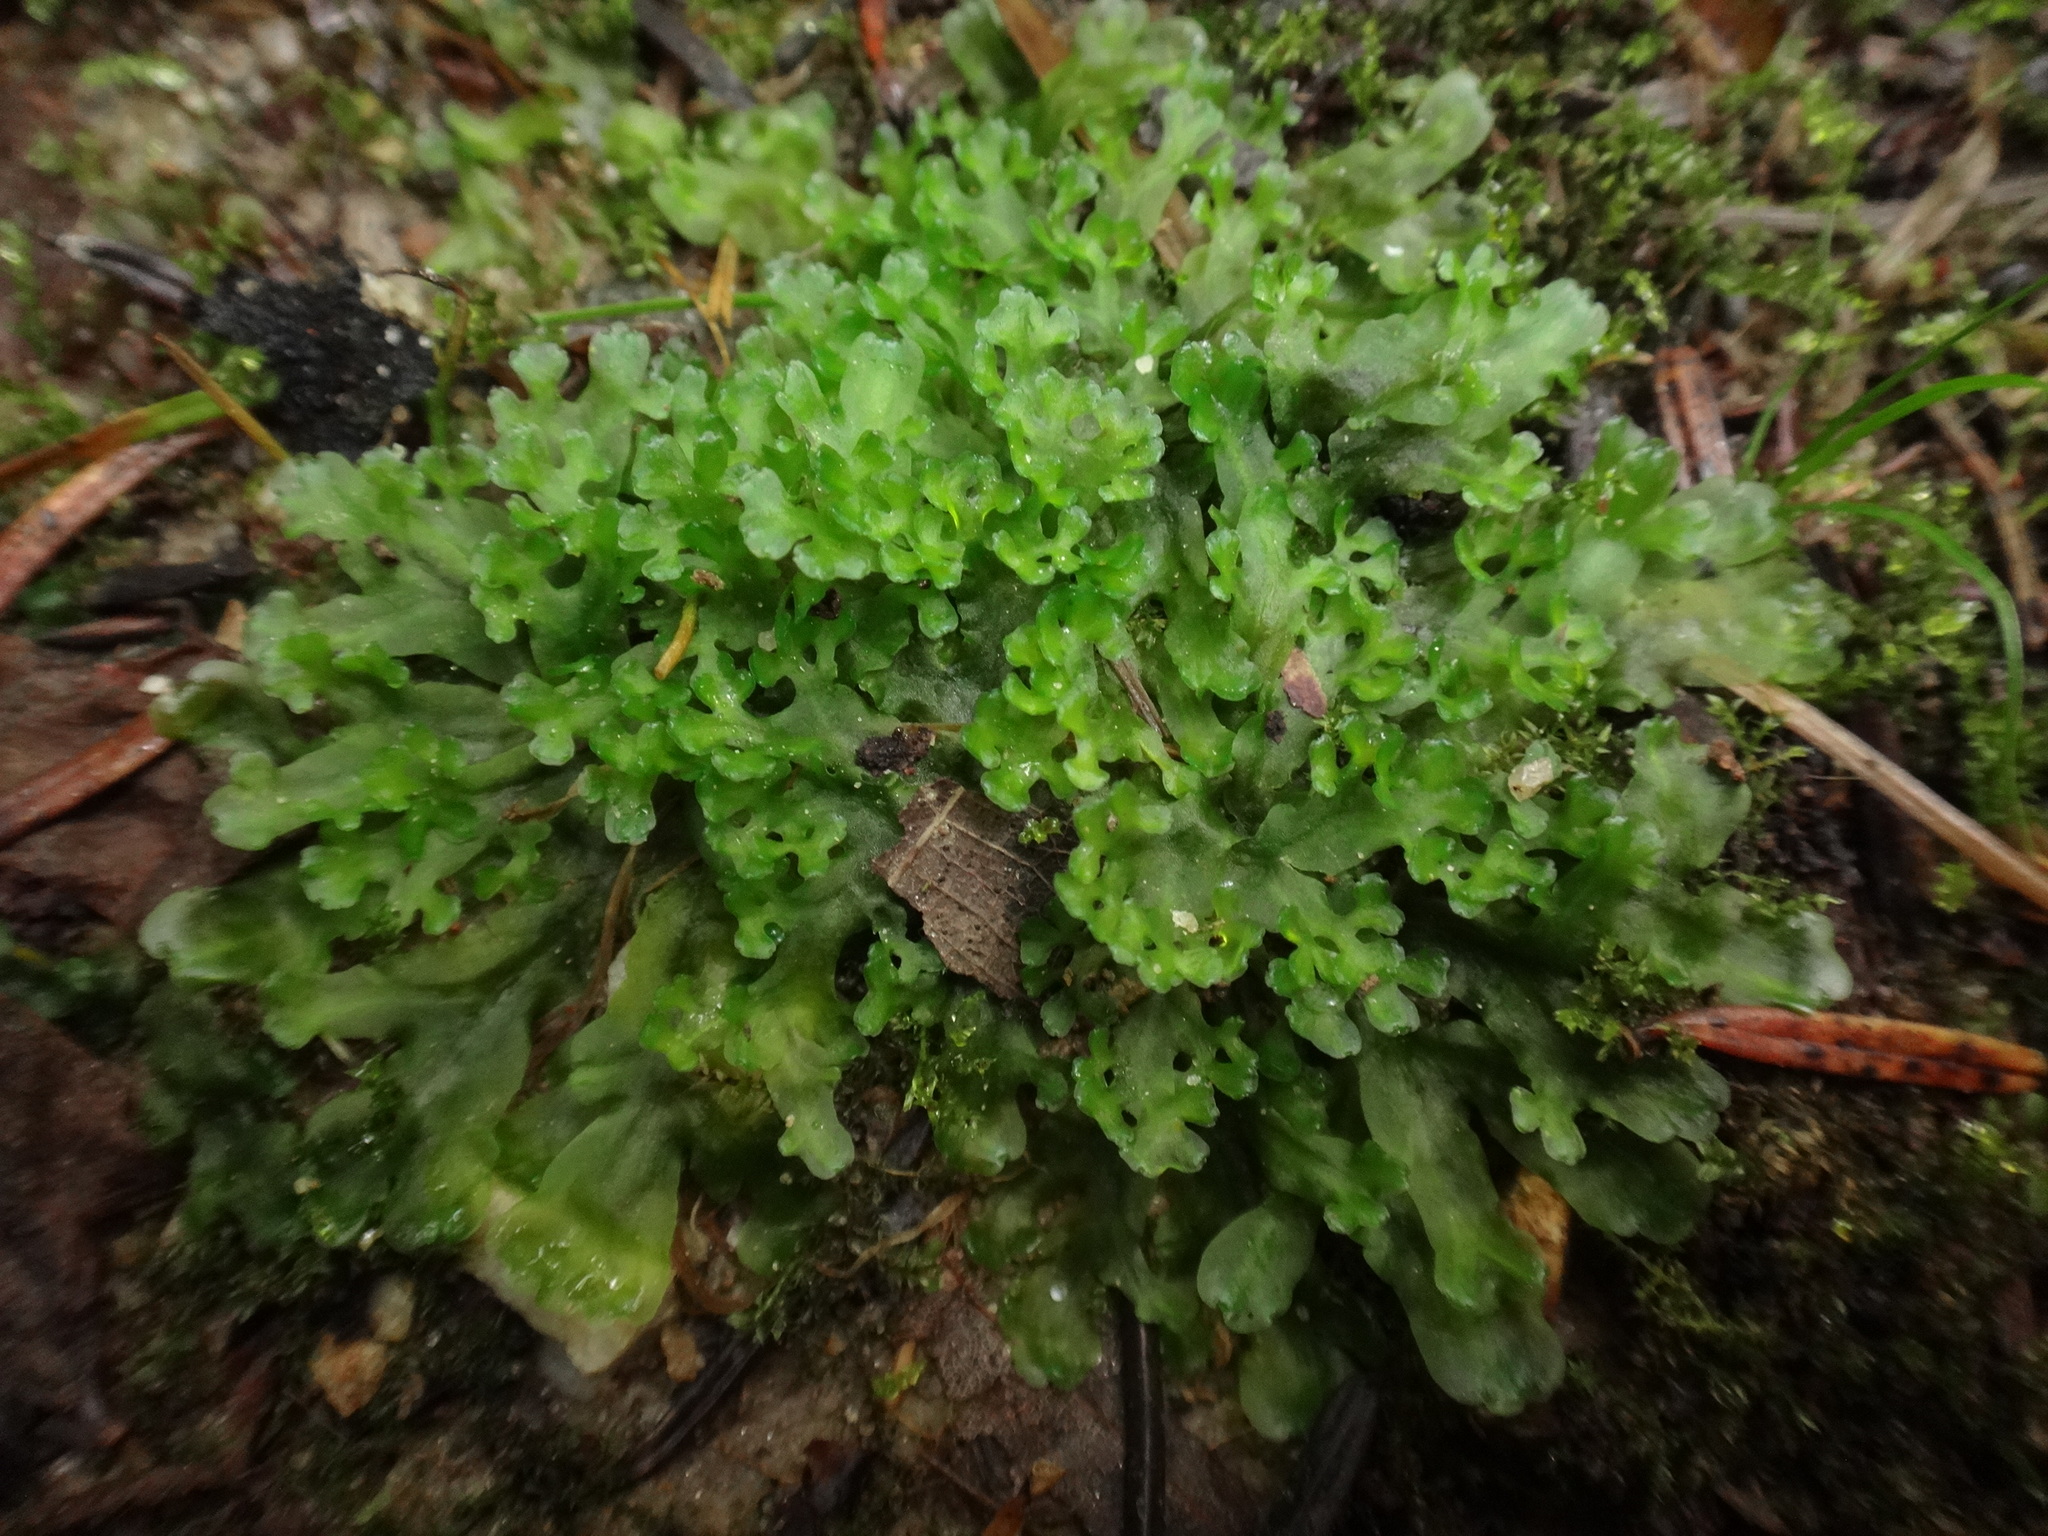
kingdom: Plantae
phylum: Marchantiophyta
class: Jungermanniopsida
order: Pelliales
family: Pelliaceae
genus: Apopellia
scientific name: Apopellia endiviifolia
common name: Endive pellia
